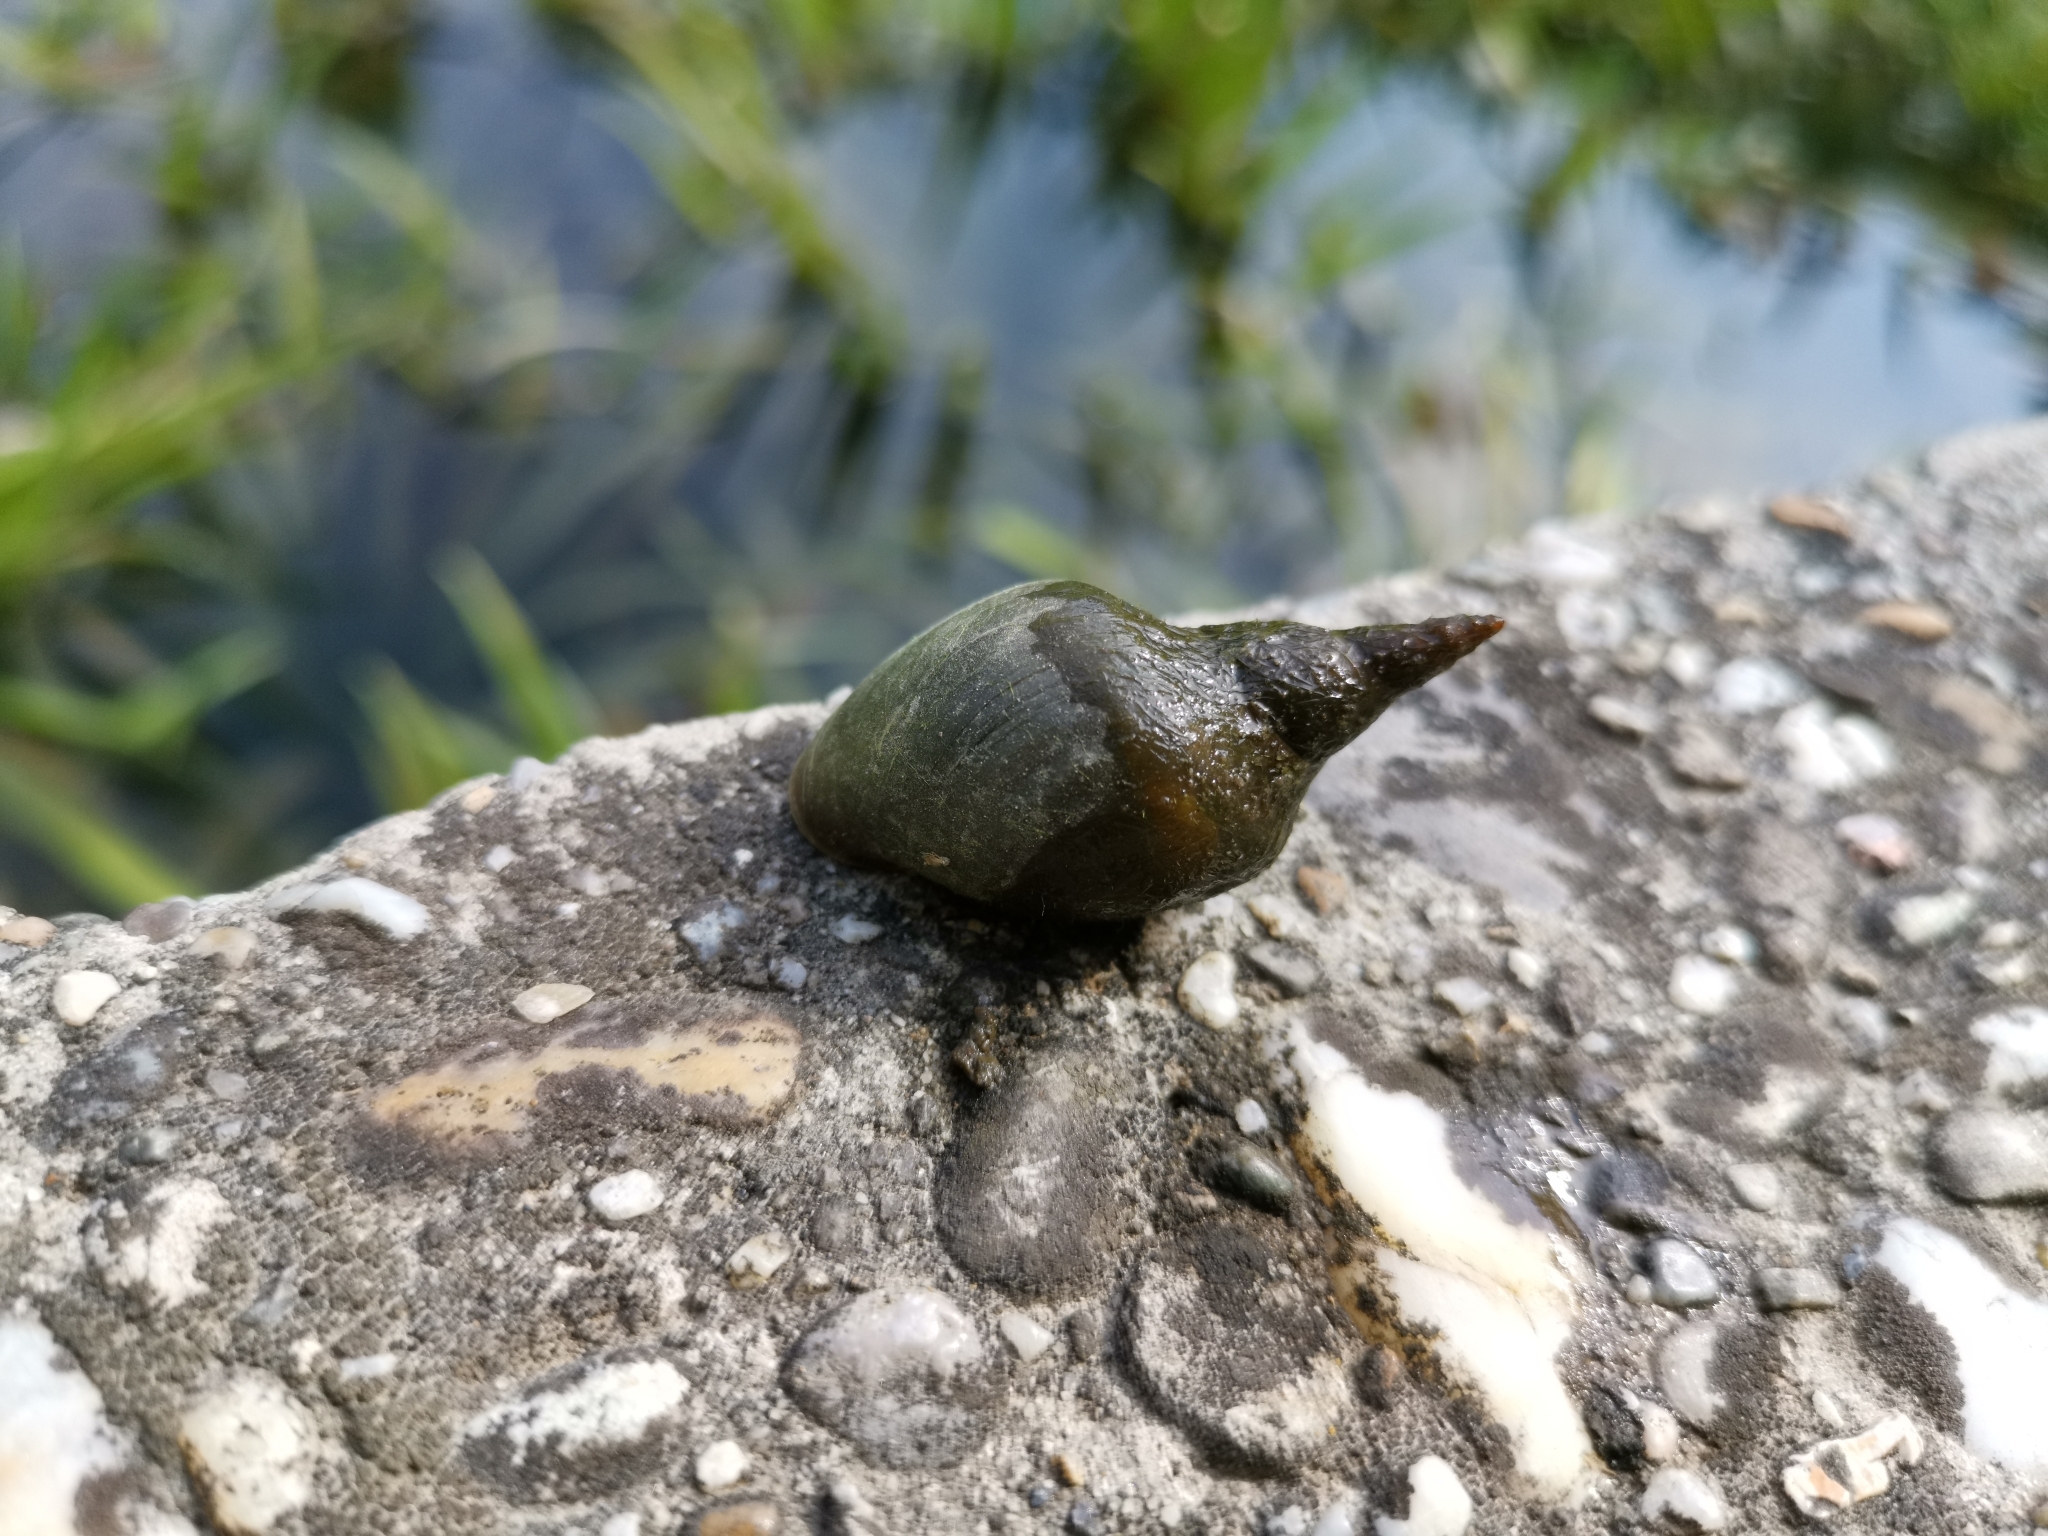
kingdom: Animalia
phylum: Mollusca
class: Gastropoda
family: Lymnaeidae
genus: Lymnaea
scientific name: Lymnaea stagnalis
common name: Great pond snail
